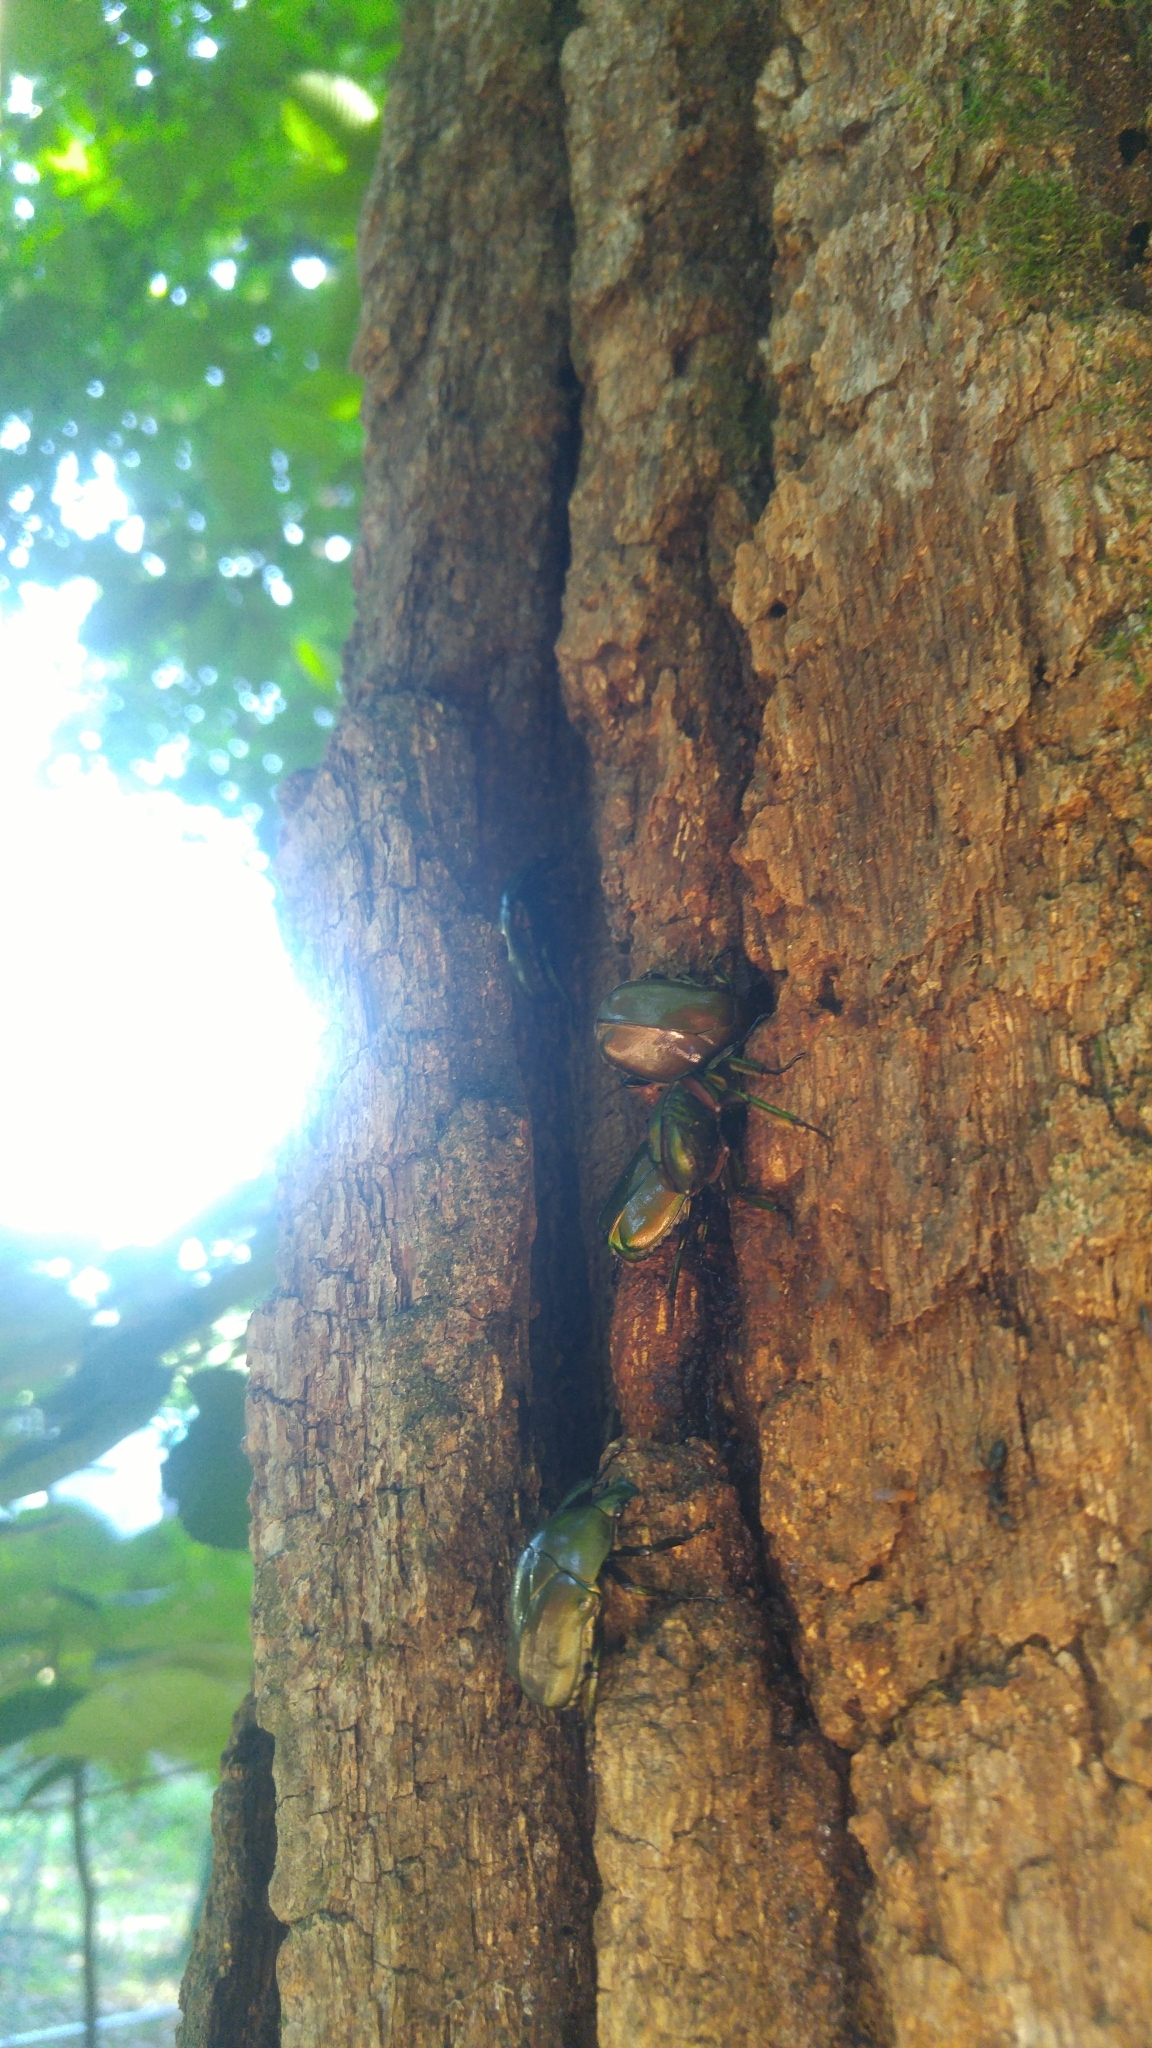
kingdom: Animalia
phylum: Arthropoda
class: Insecta
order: Coleoptera
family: Scarabaeidae
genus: Pseudotorynorrhina
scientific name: Pseudotorynorrhina japonica
